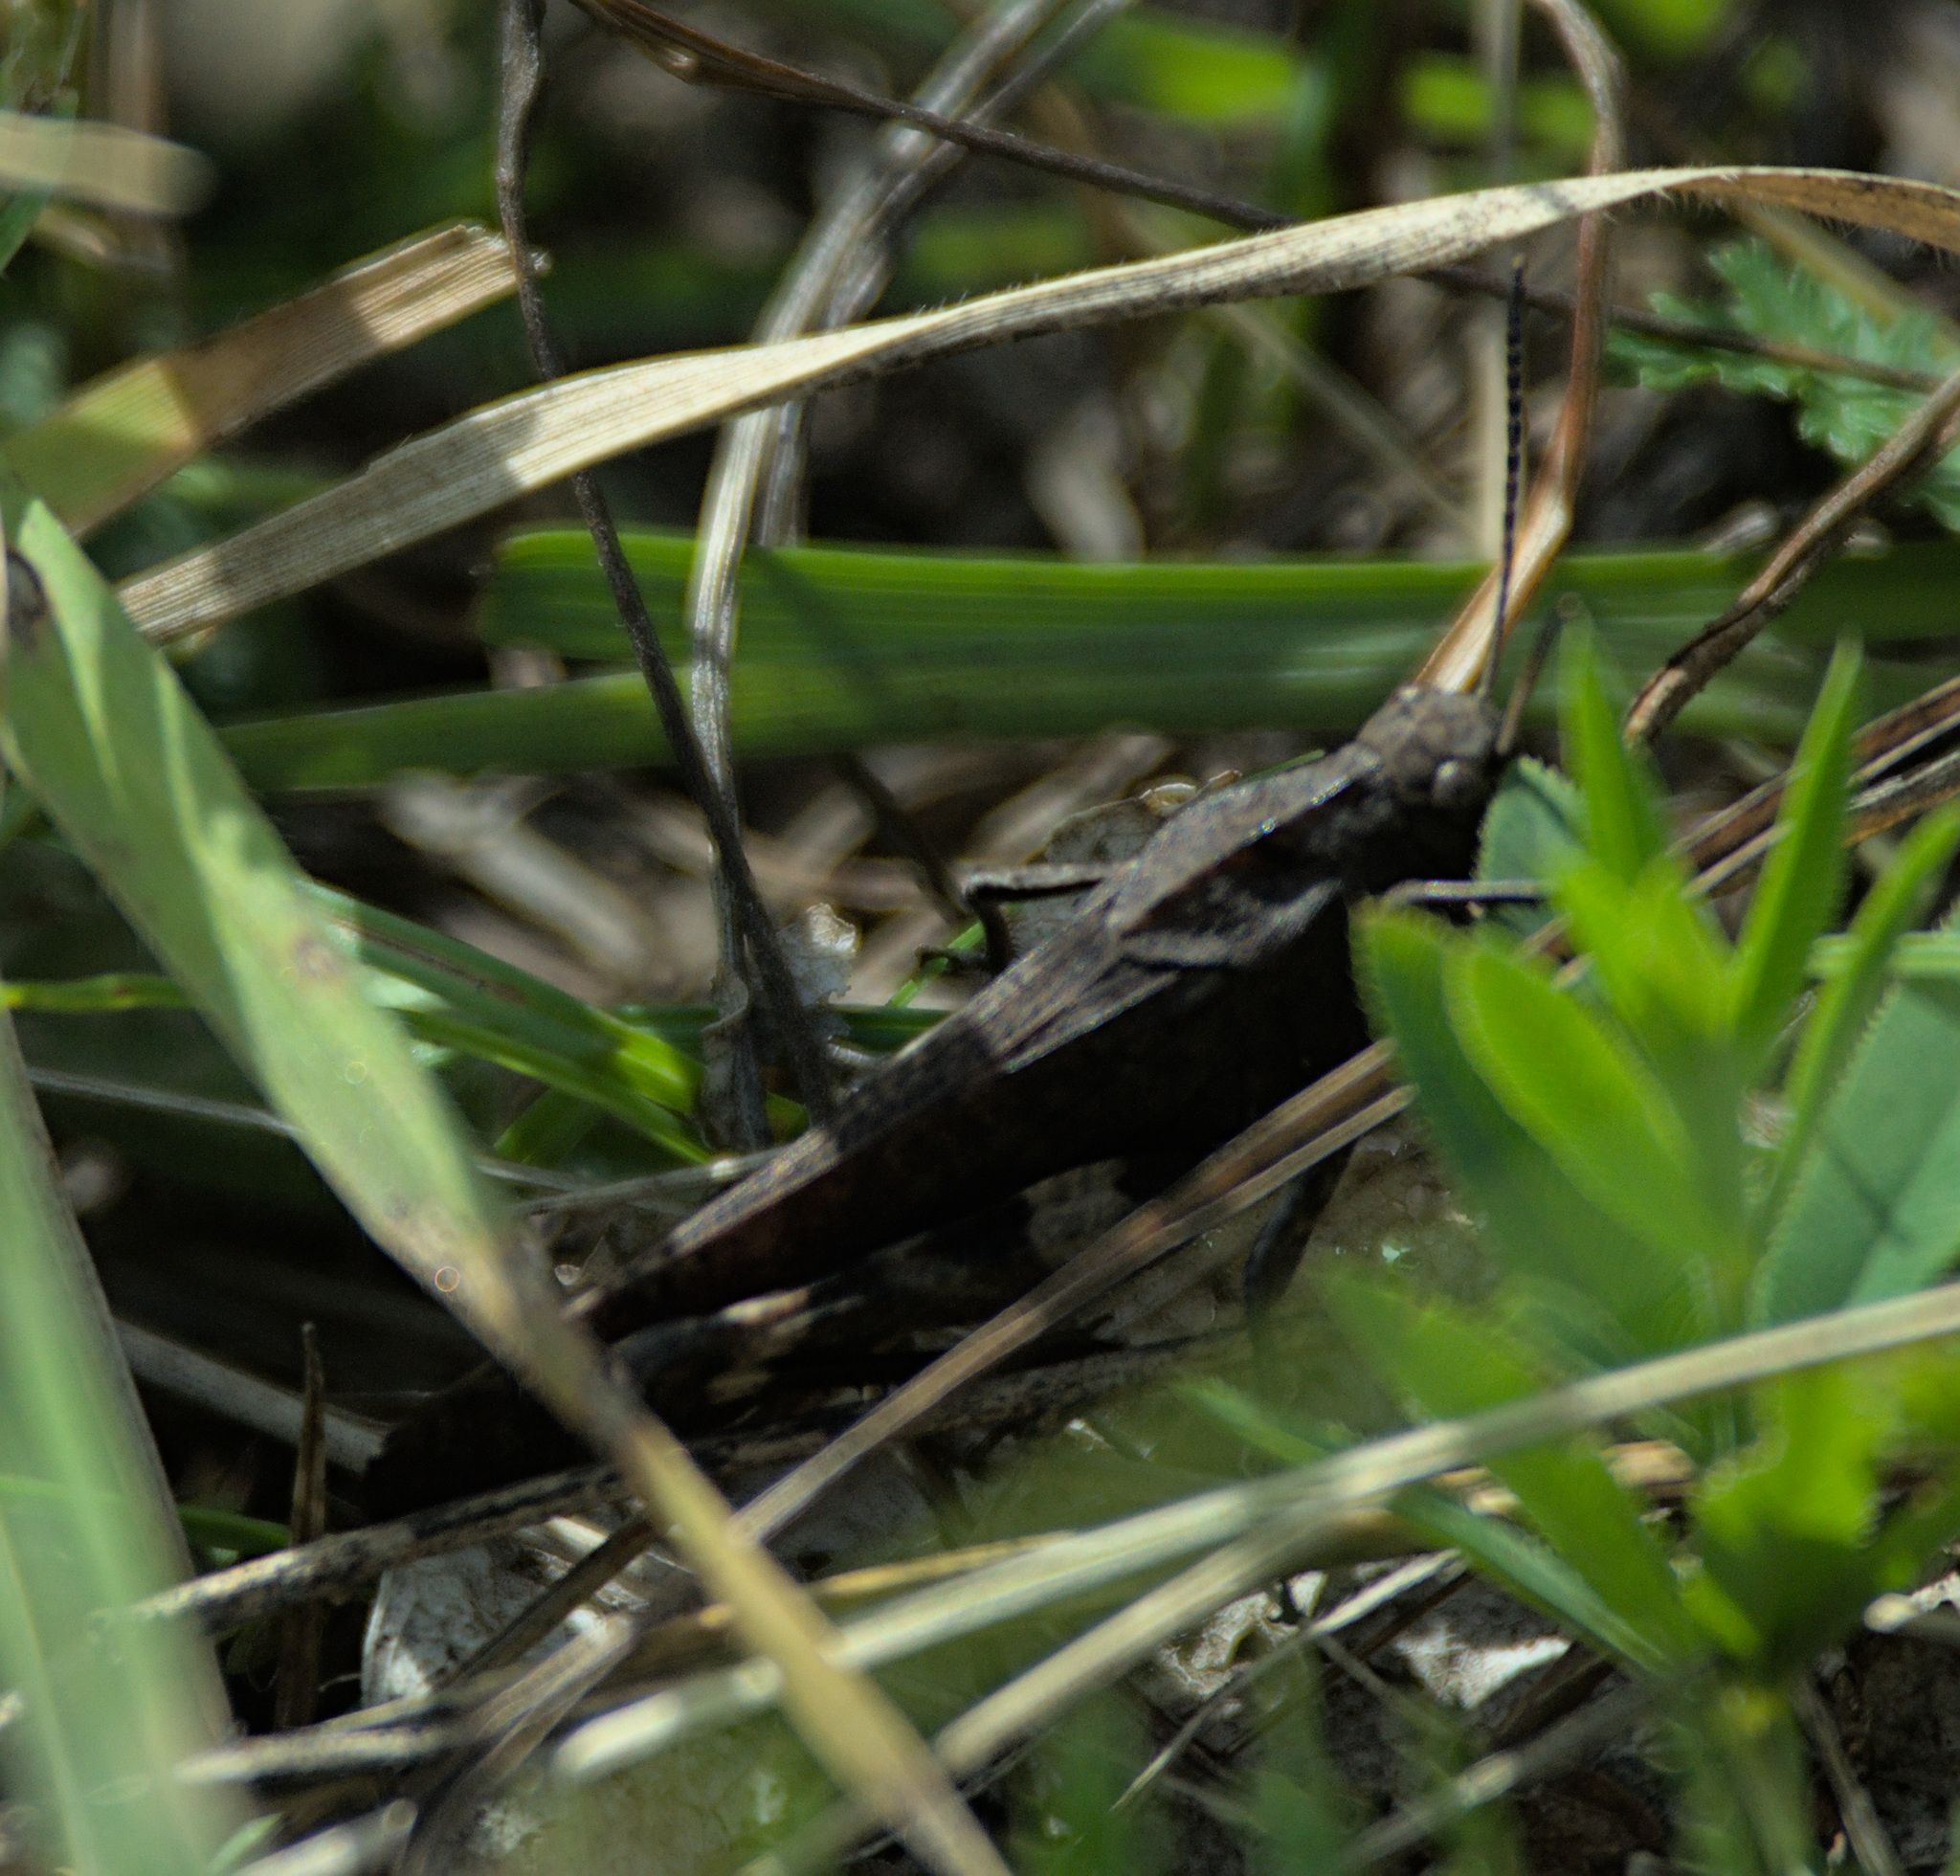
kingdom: Animalia
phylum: Arthropoda
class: Insecta
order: Orthoptera
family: Acrididae
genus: Psophus
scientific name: Psophus stridulus
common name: Rattle grasshopper
